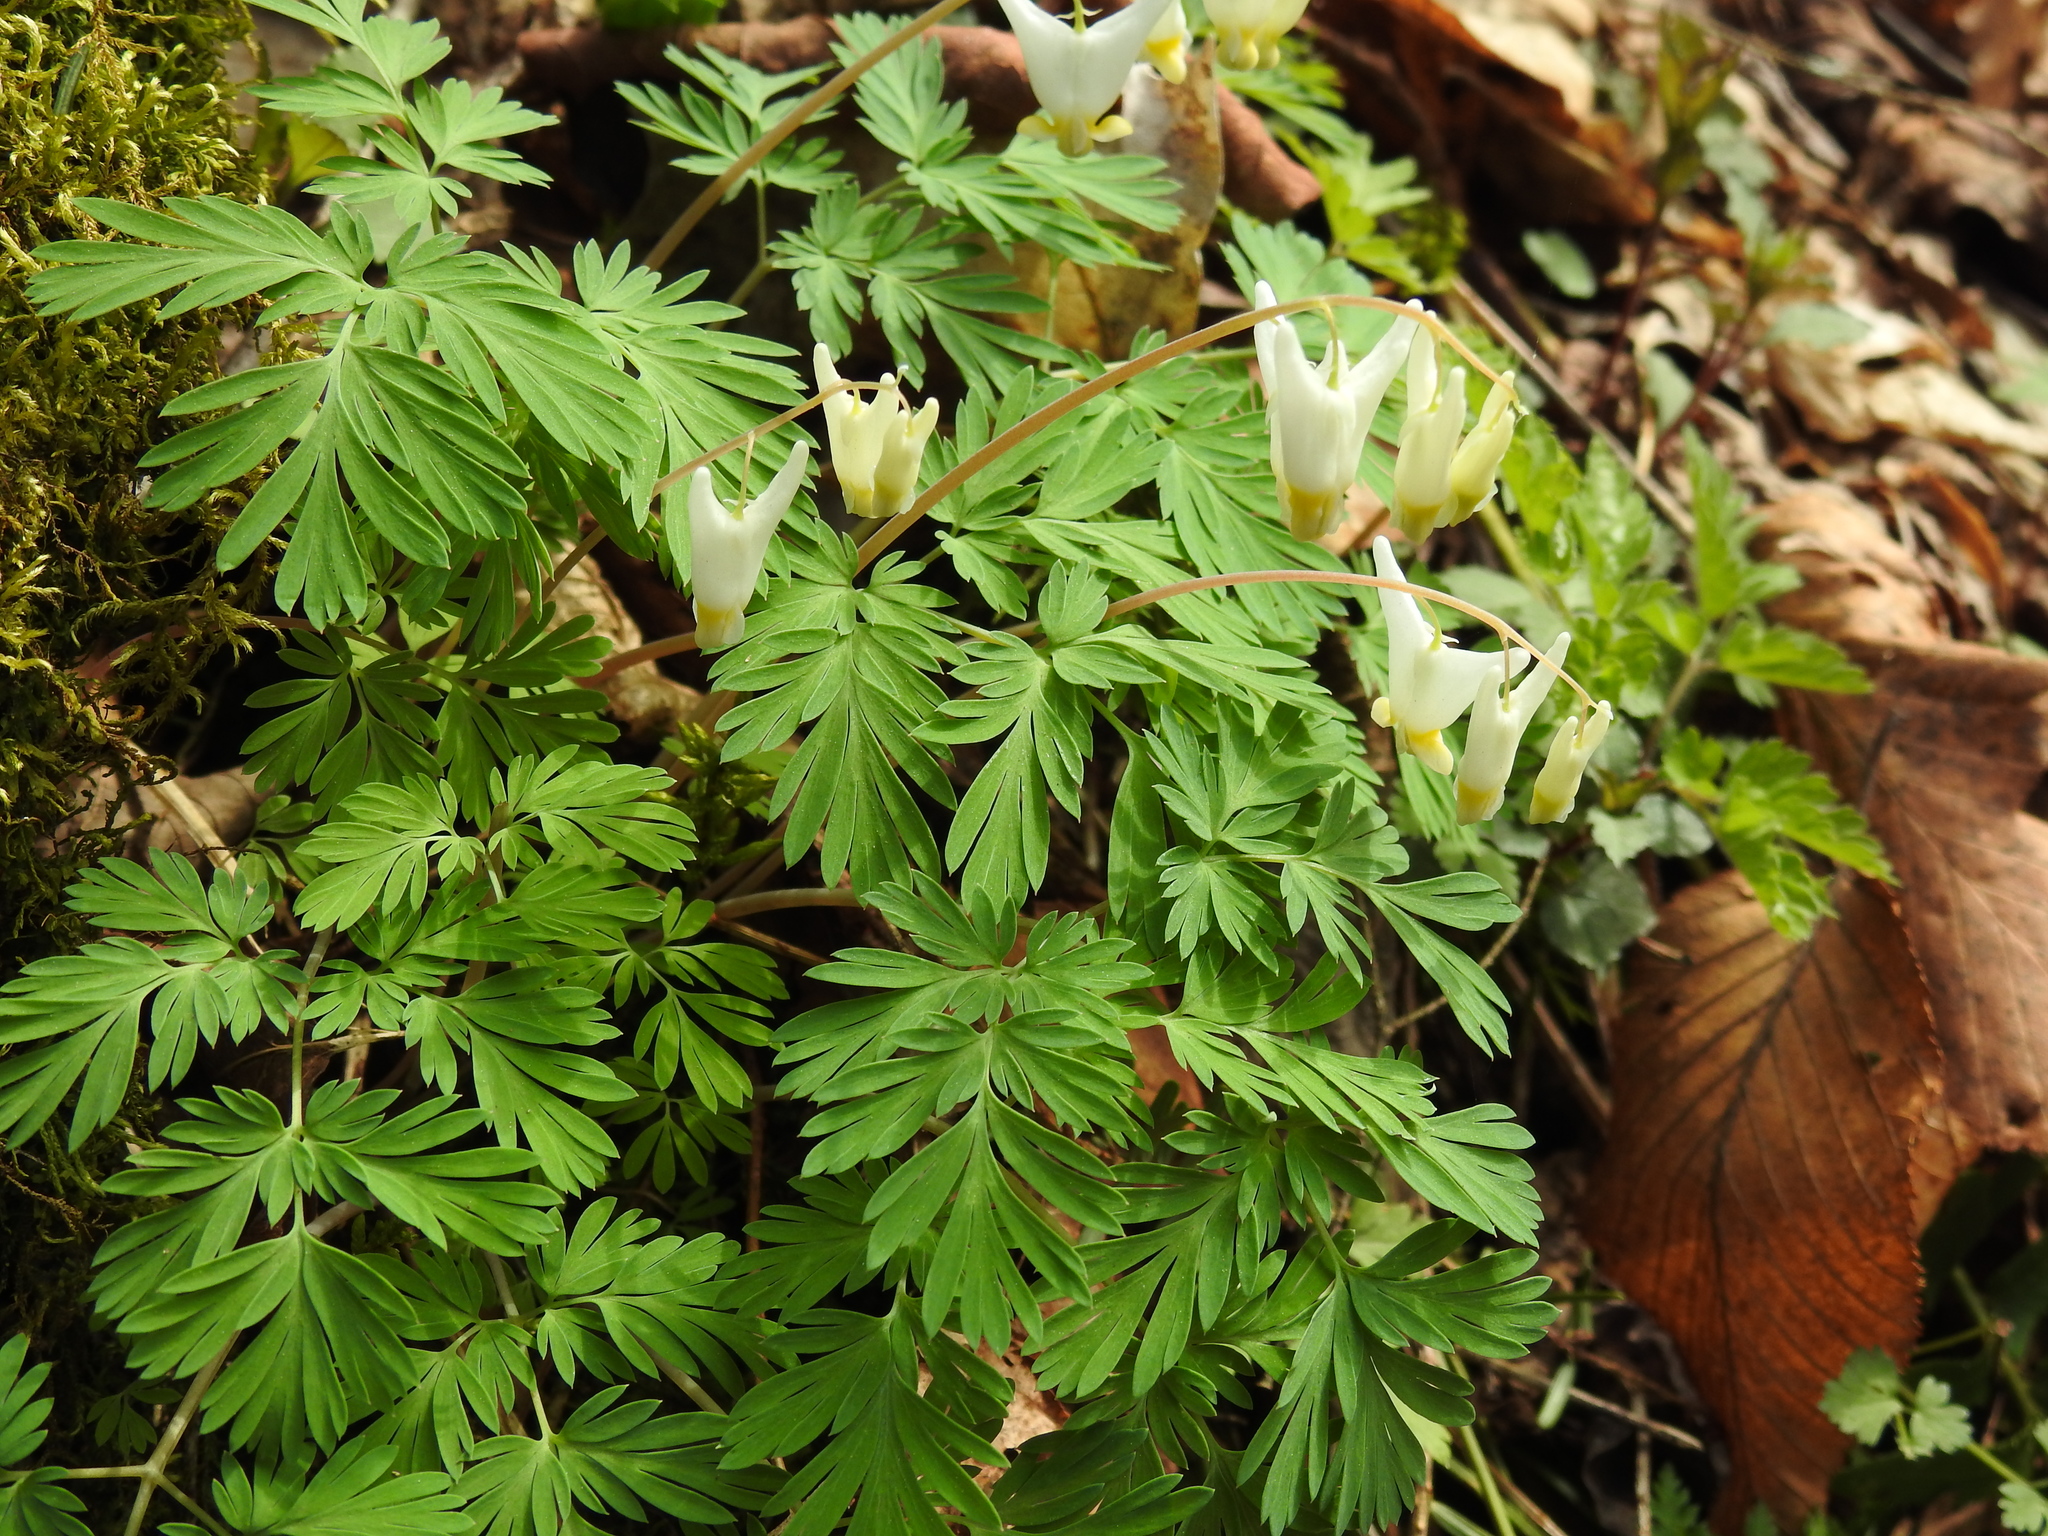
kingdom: Plantae
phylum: Tracheophyta
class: Magnoliopsida
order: Ranunculales
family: Papaveraceae
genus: Dicentra
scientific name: Dicentra cucullaria
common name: Dutchman's breeches
